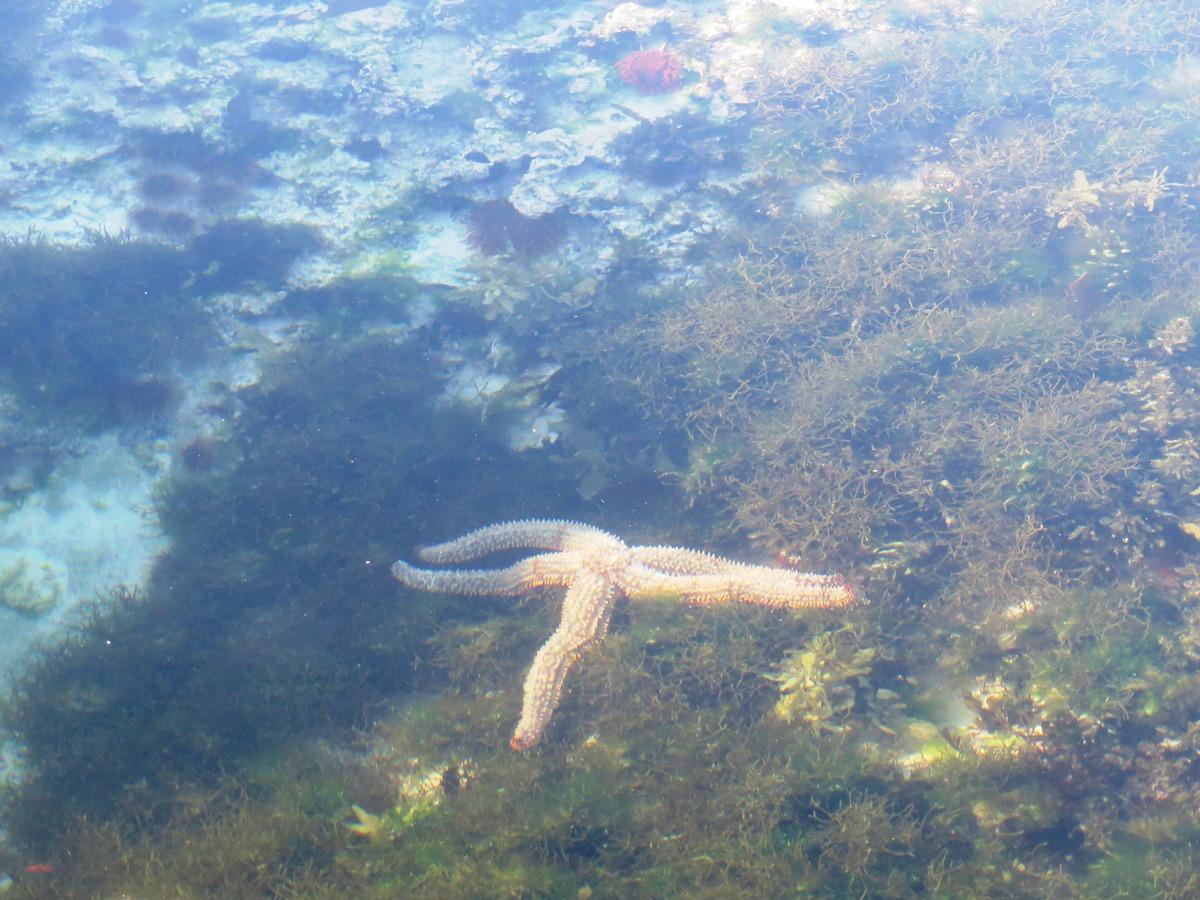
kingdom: Animalia
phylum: Echinodermata
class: Asteroidea
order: Forcipulatida
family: Asteriidae
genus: Marthasterias
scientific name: Marthasterias africana
